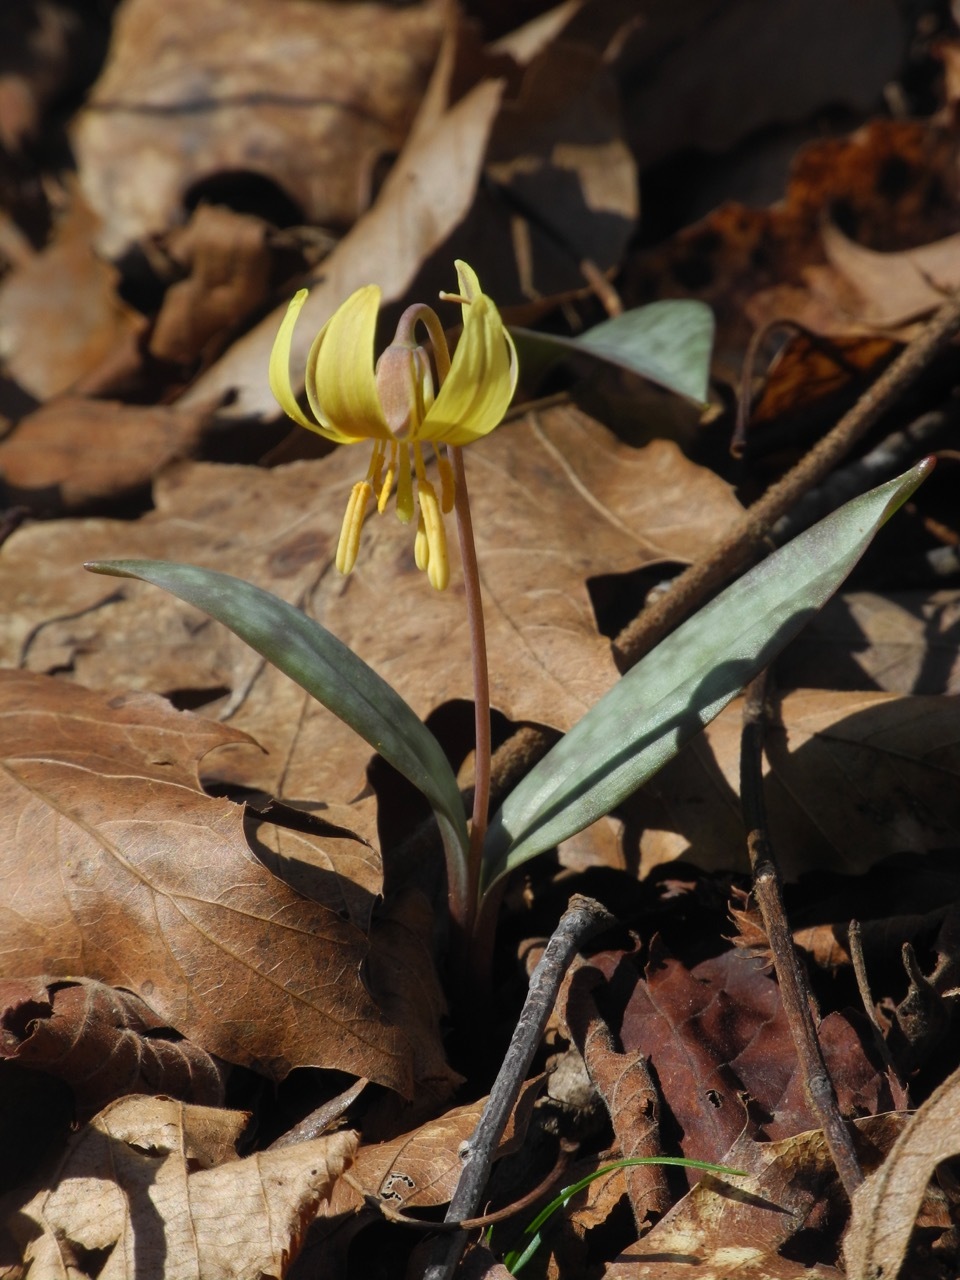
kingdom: Plantae
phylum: Tracheophyta
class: Liliopsida
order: Liliales
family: Liliaceae
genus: Erythronium
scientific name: Erythronium americanum
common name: Yellow adder's-tongue
